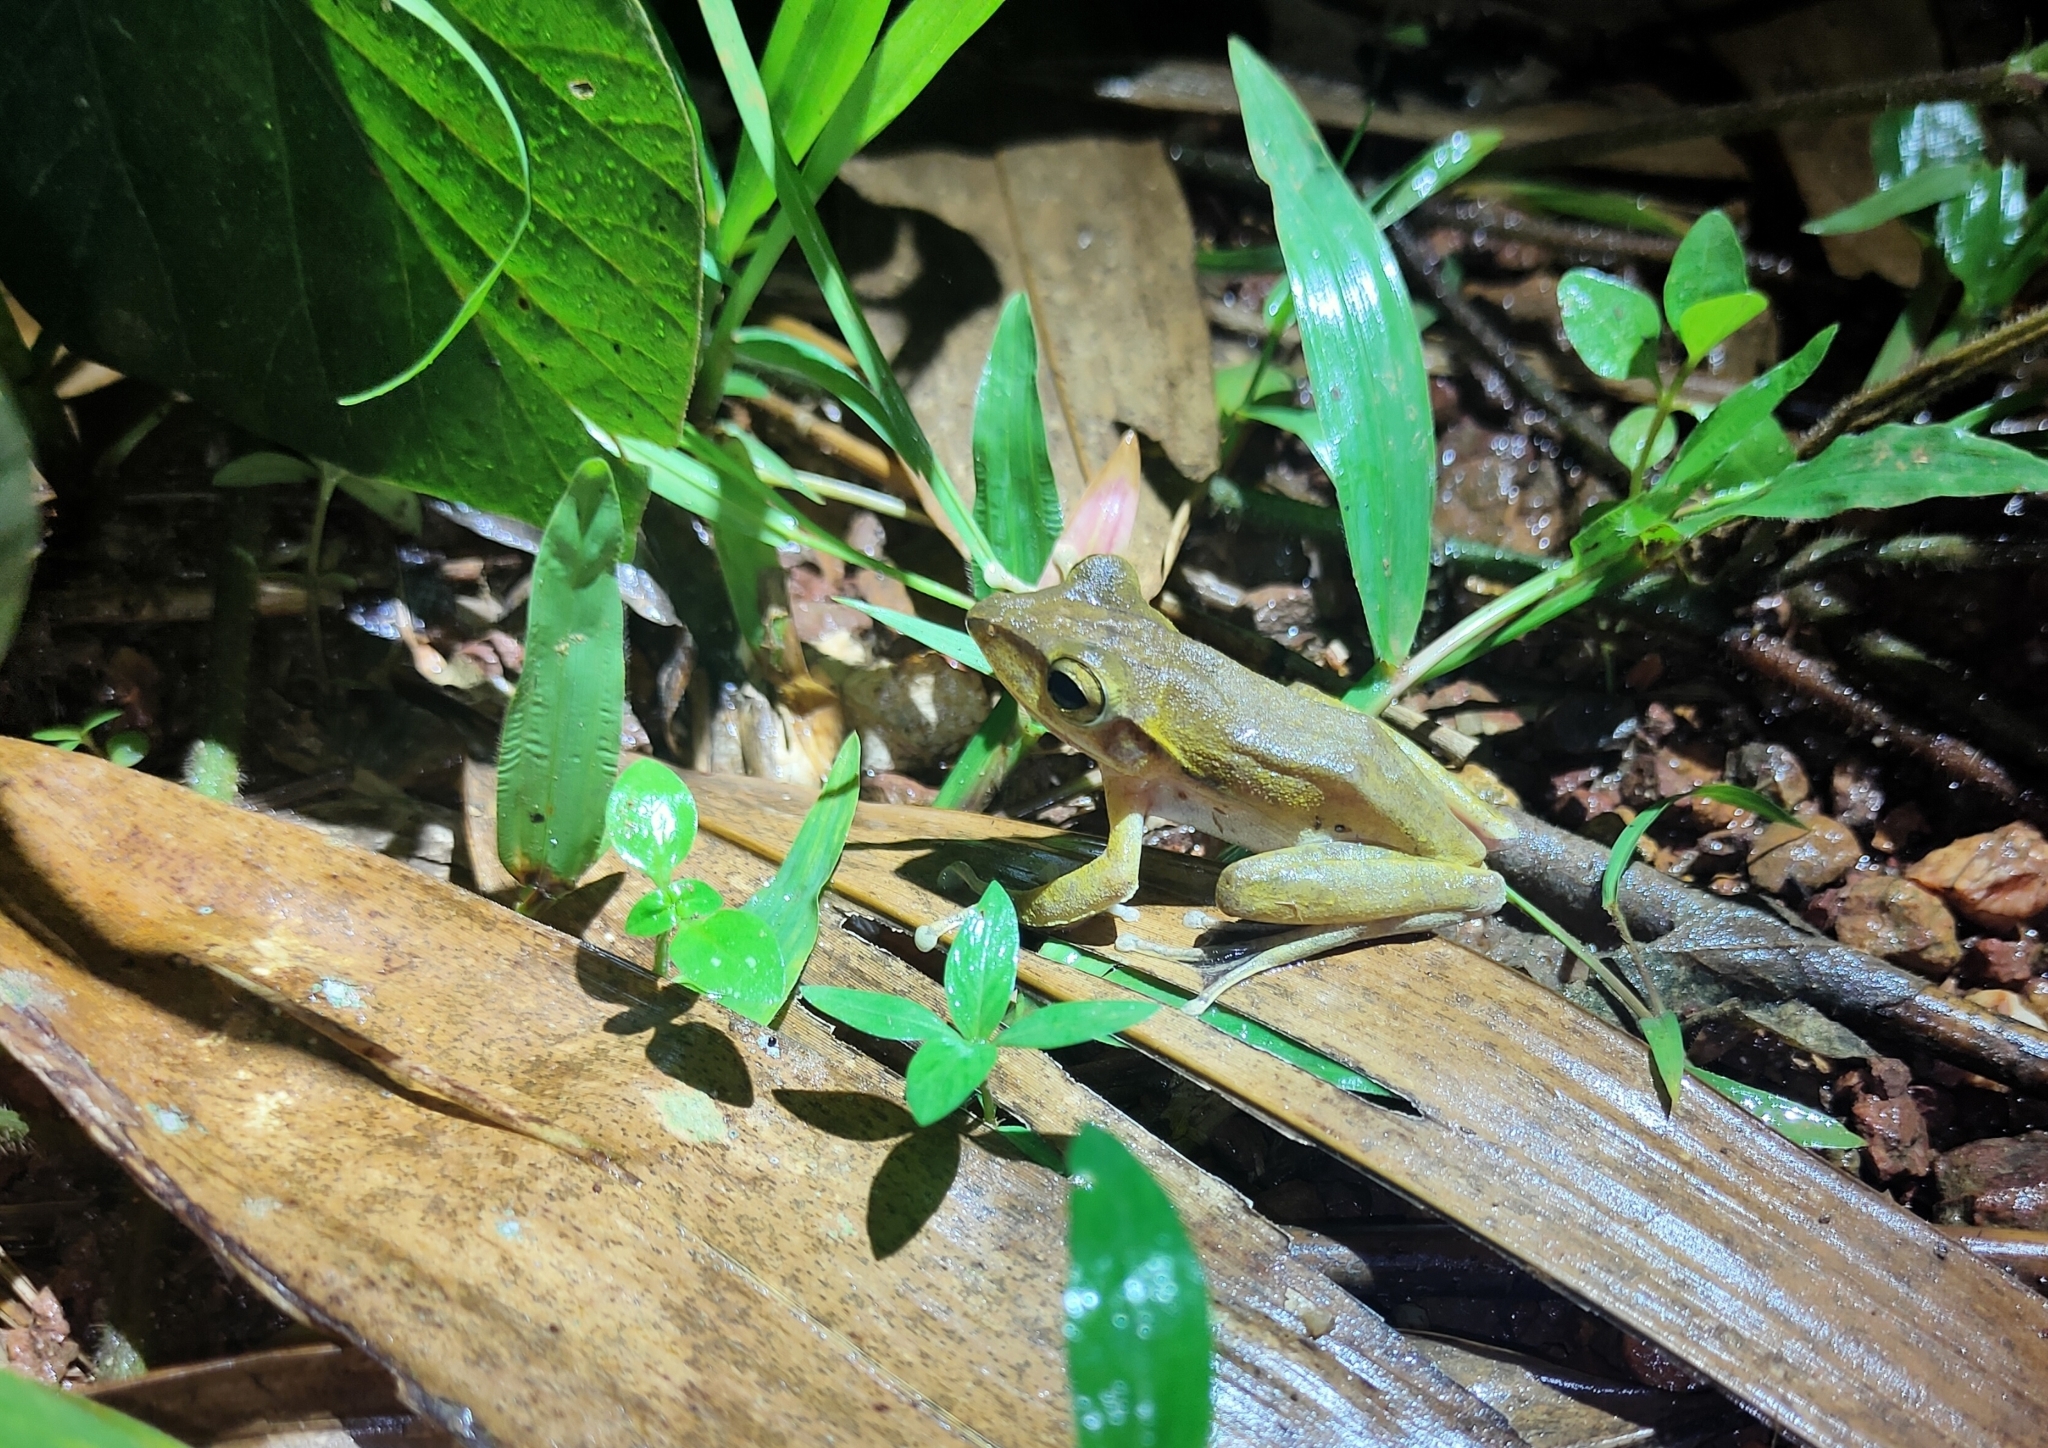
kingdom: Animalia
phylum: Chordata
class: Amphibia
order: Anura
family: Rhacophoridae
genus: Polypedates
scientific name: Polypedates leucomystax
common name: Common tree frog/four-lined tree frog
